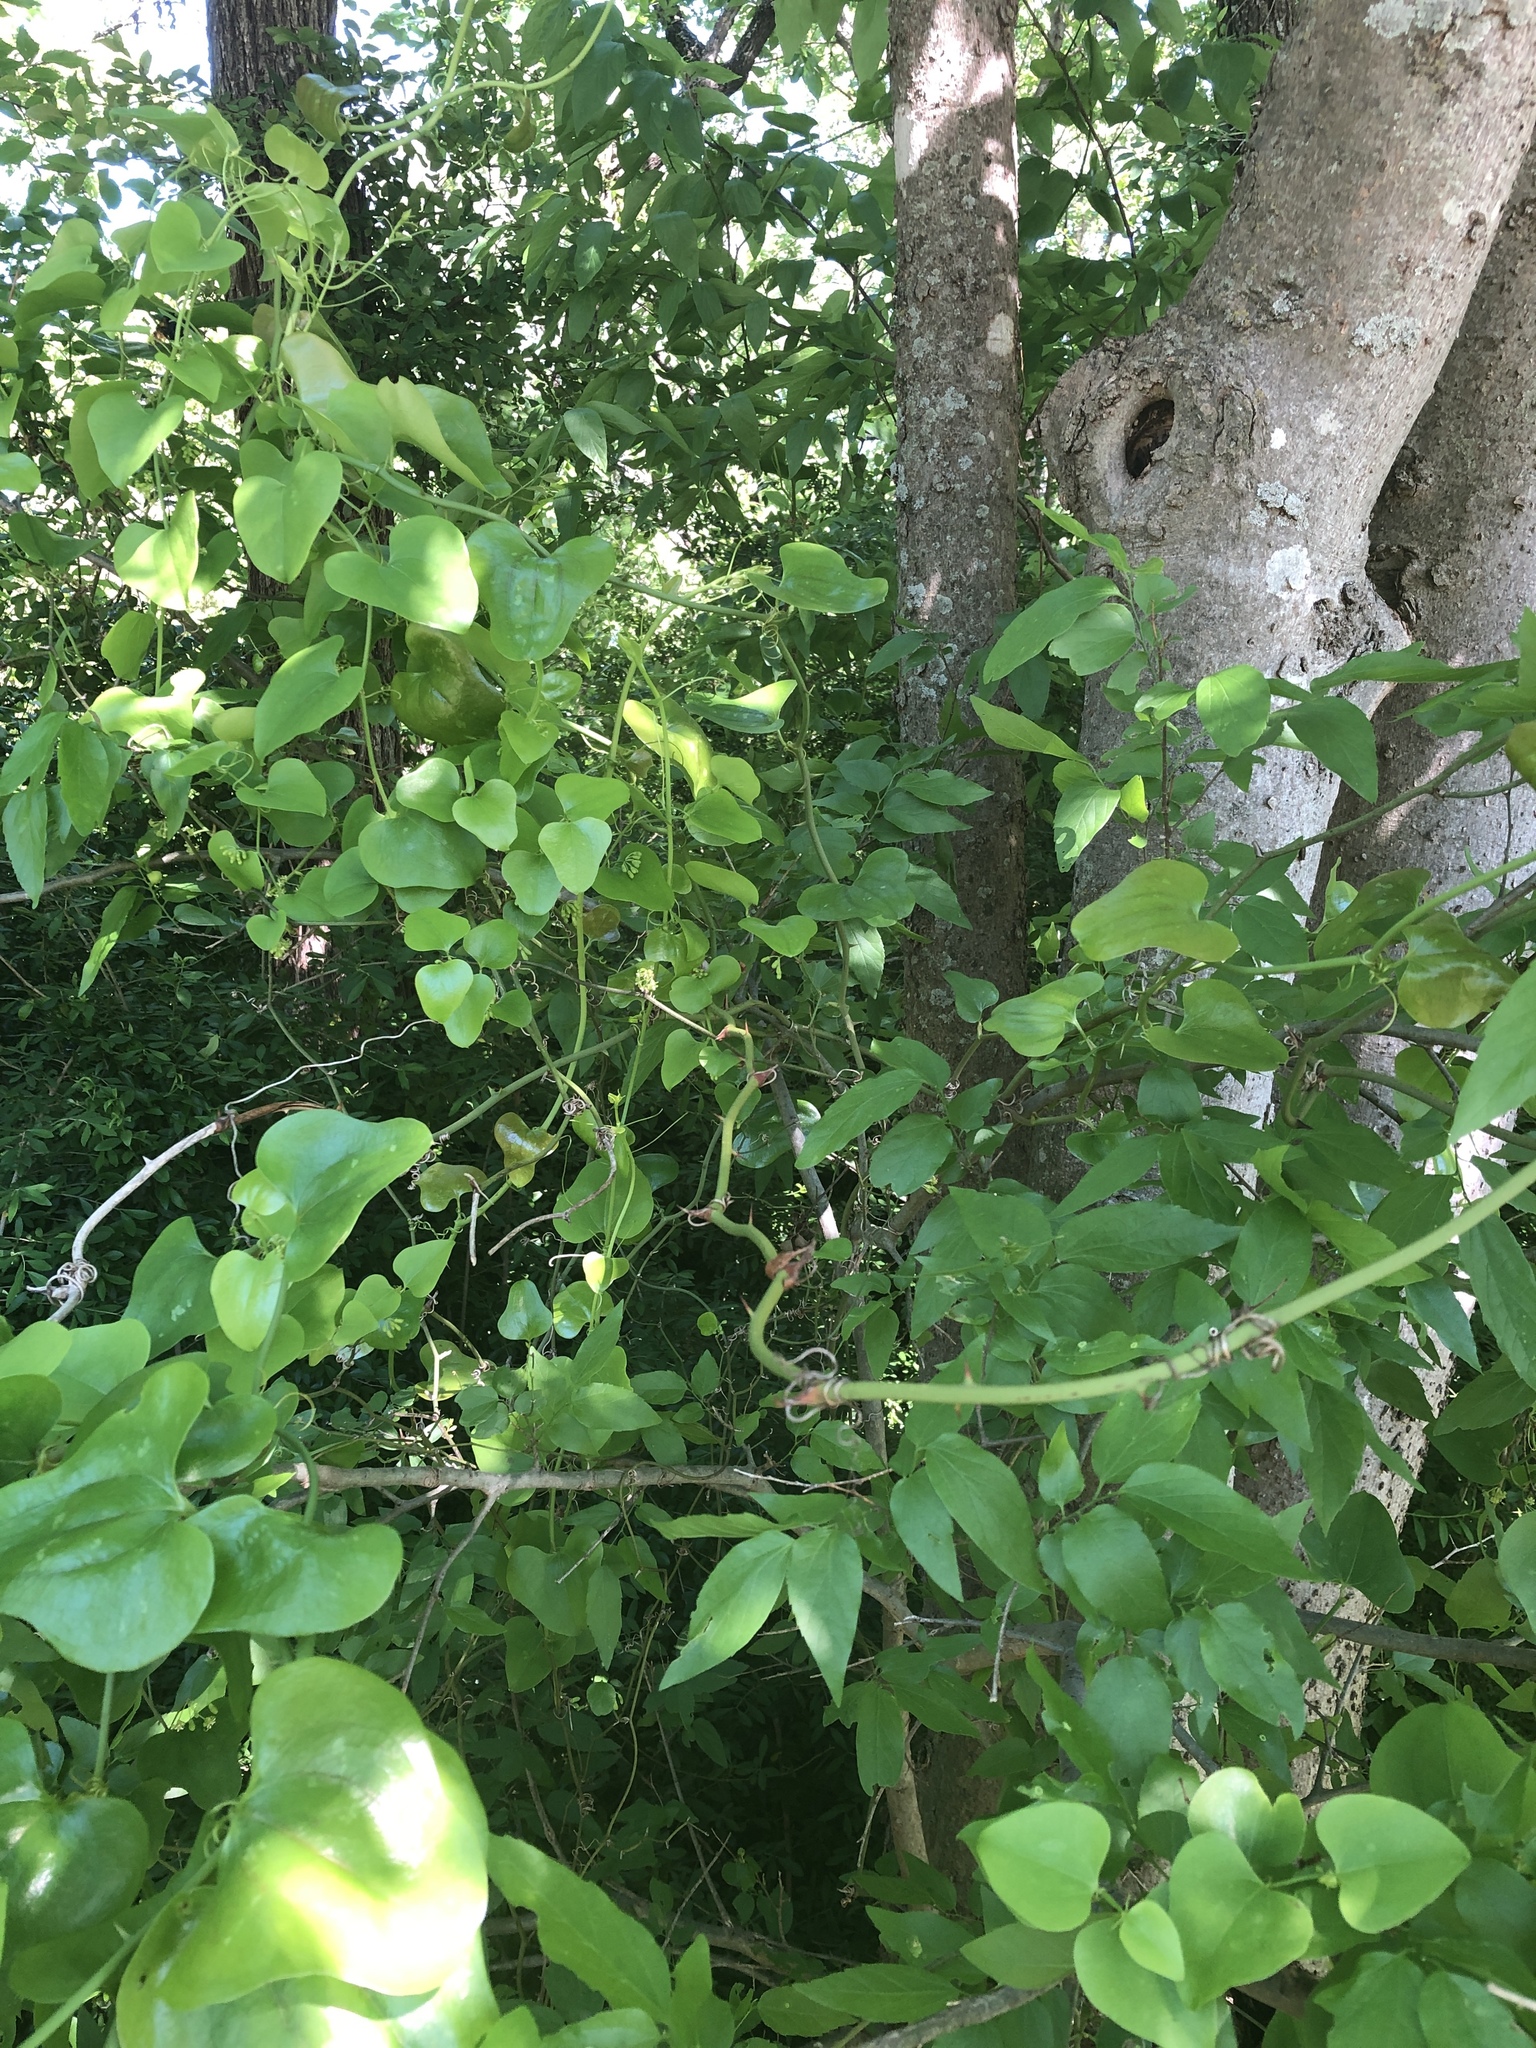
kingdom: Plantae
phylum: Tracheophyta
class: Liliopsida
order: Liliales
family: Smilacaceae
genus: Smilax
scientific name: Smilax bona-nox
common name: Catbrier
